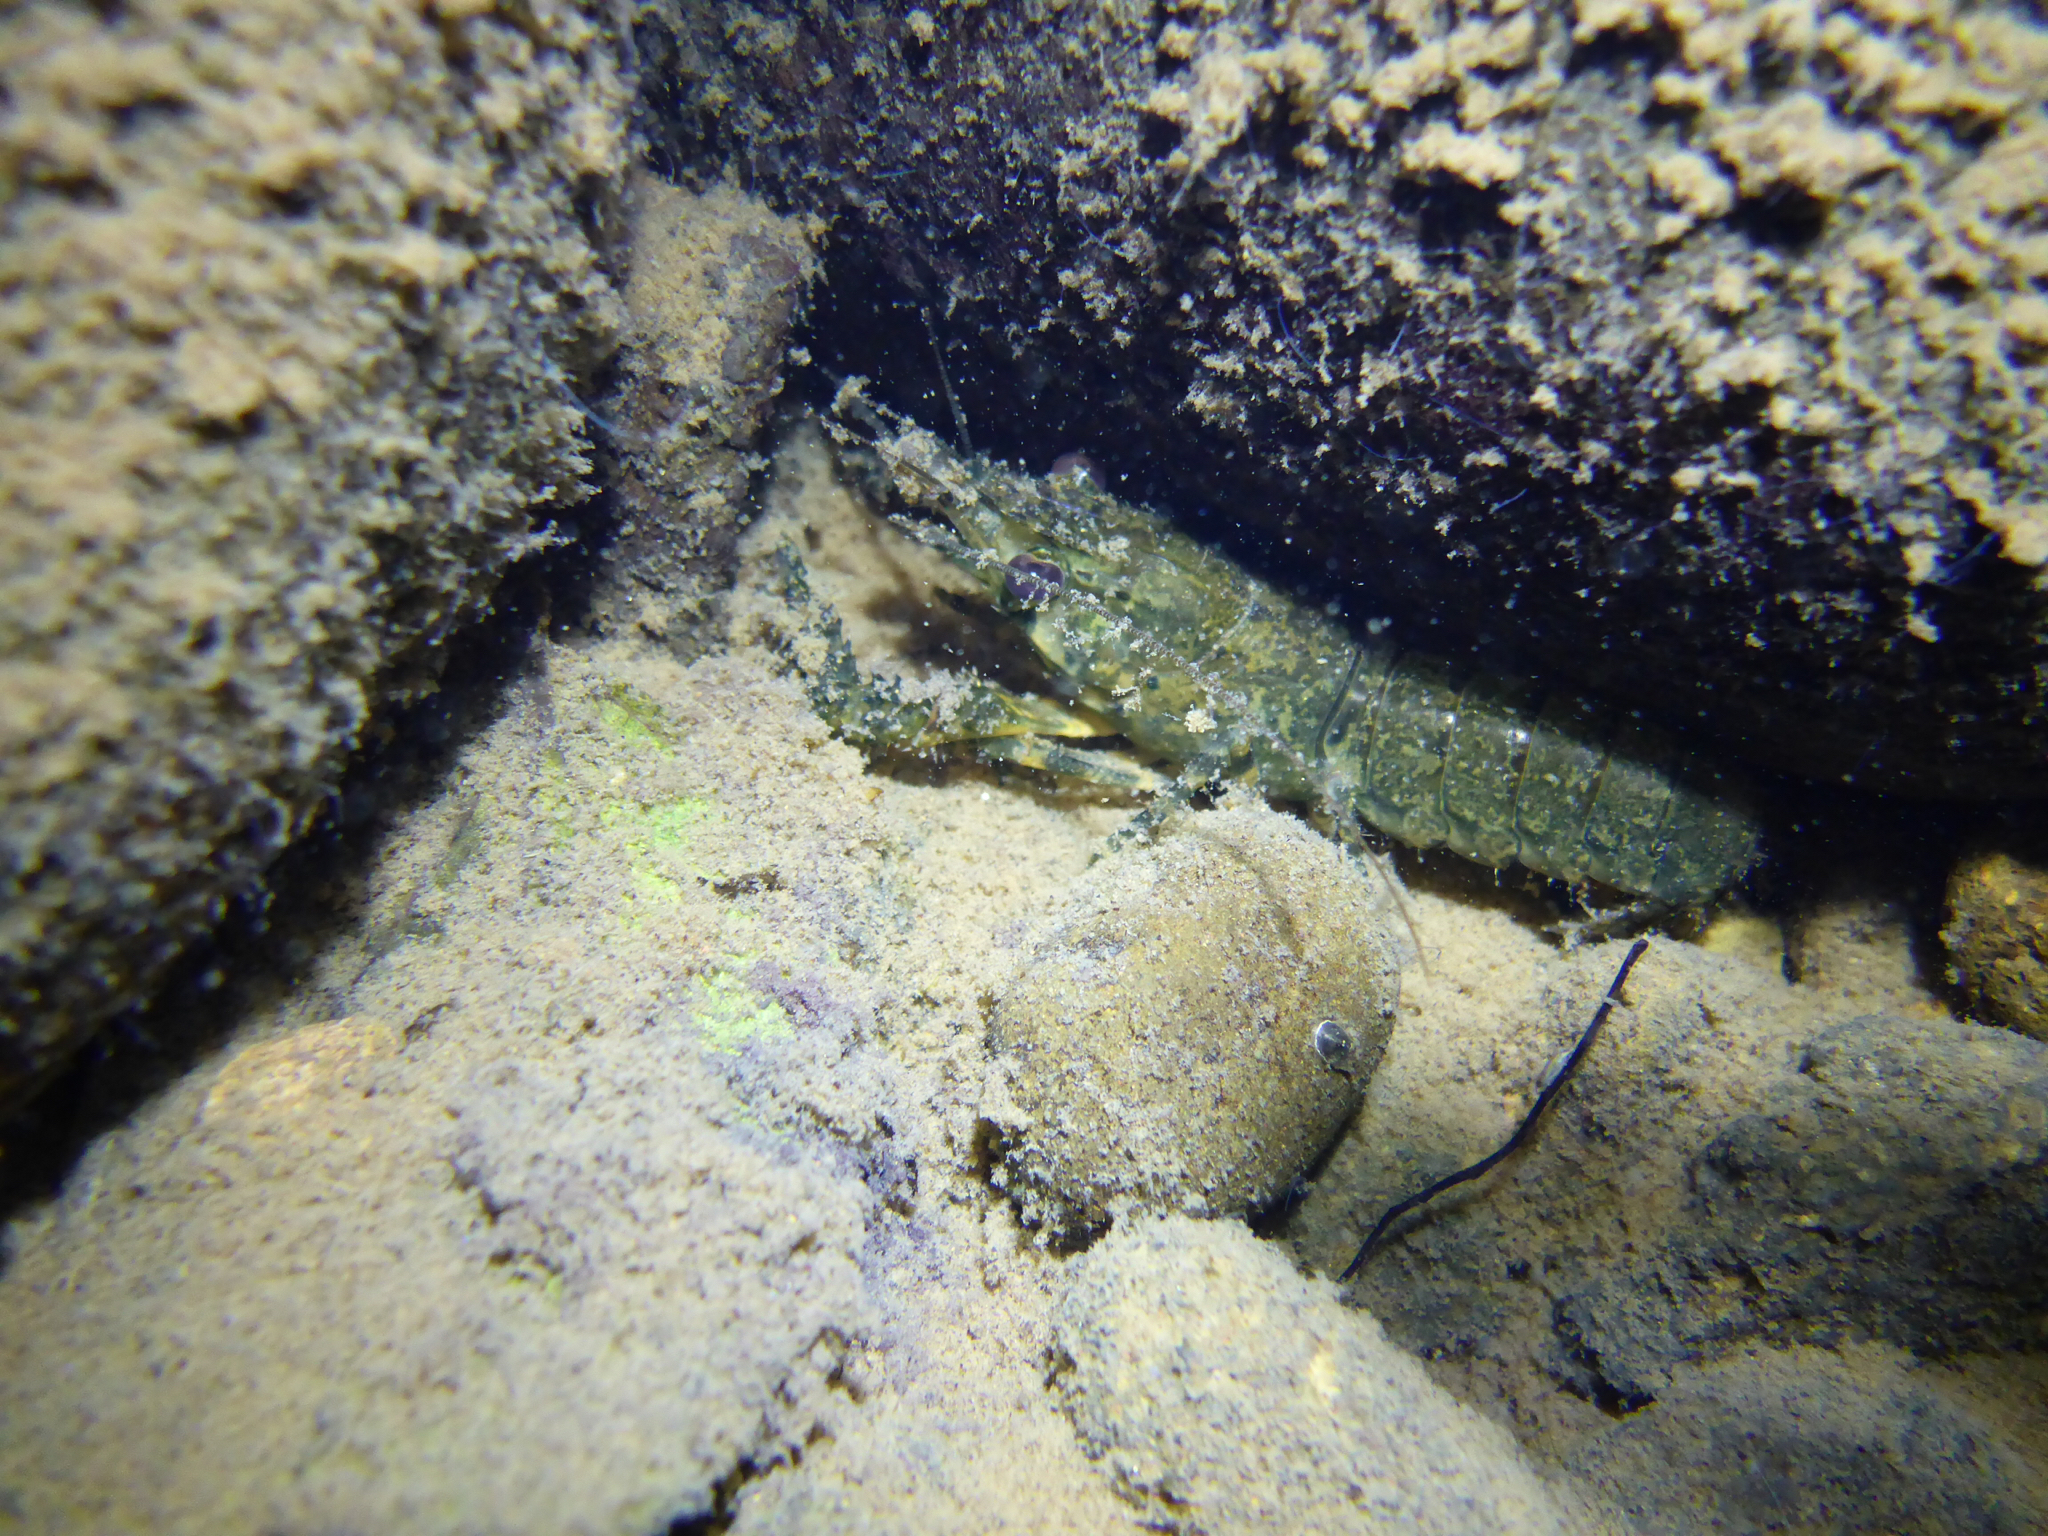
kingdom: Animalia
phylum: Arthropoda
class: Malacostraca
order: Decapoda
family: Parastacidae
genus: Paranephrops
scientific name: Paranephrops planifrons
